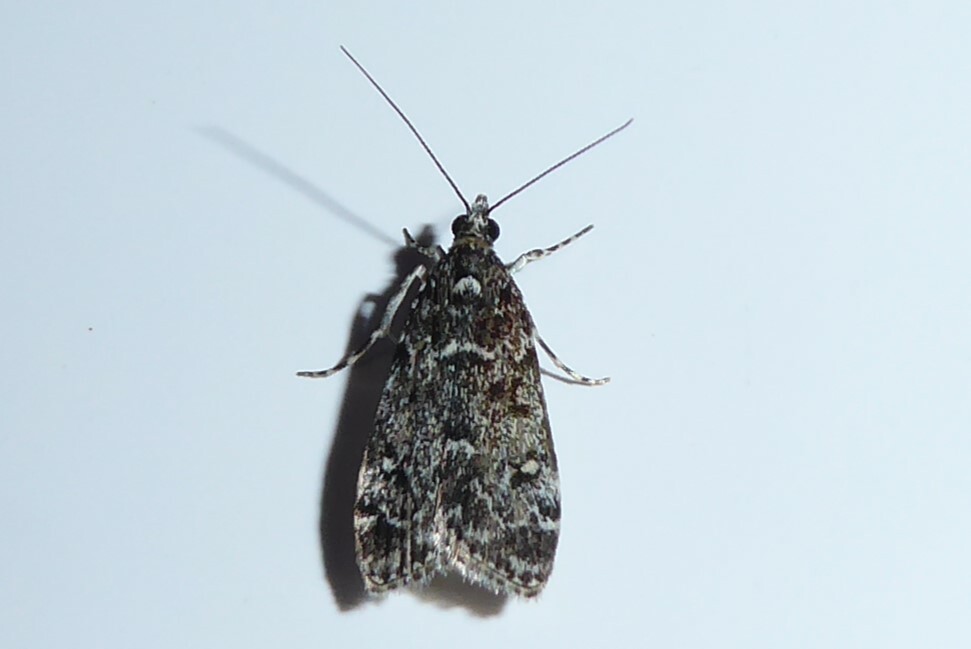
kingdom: Animalia
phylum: Arthropoda
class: Insecta
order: Lepidoptera
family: Crambidae
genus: Eudonia
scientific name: Eudonia philerga
